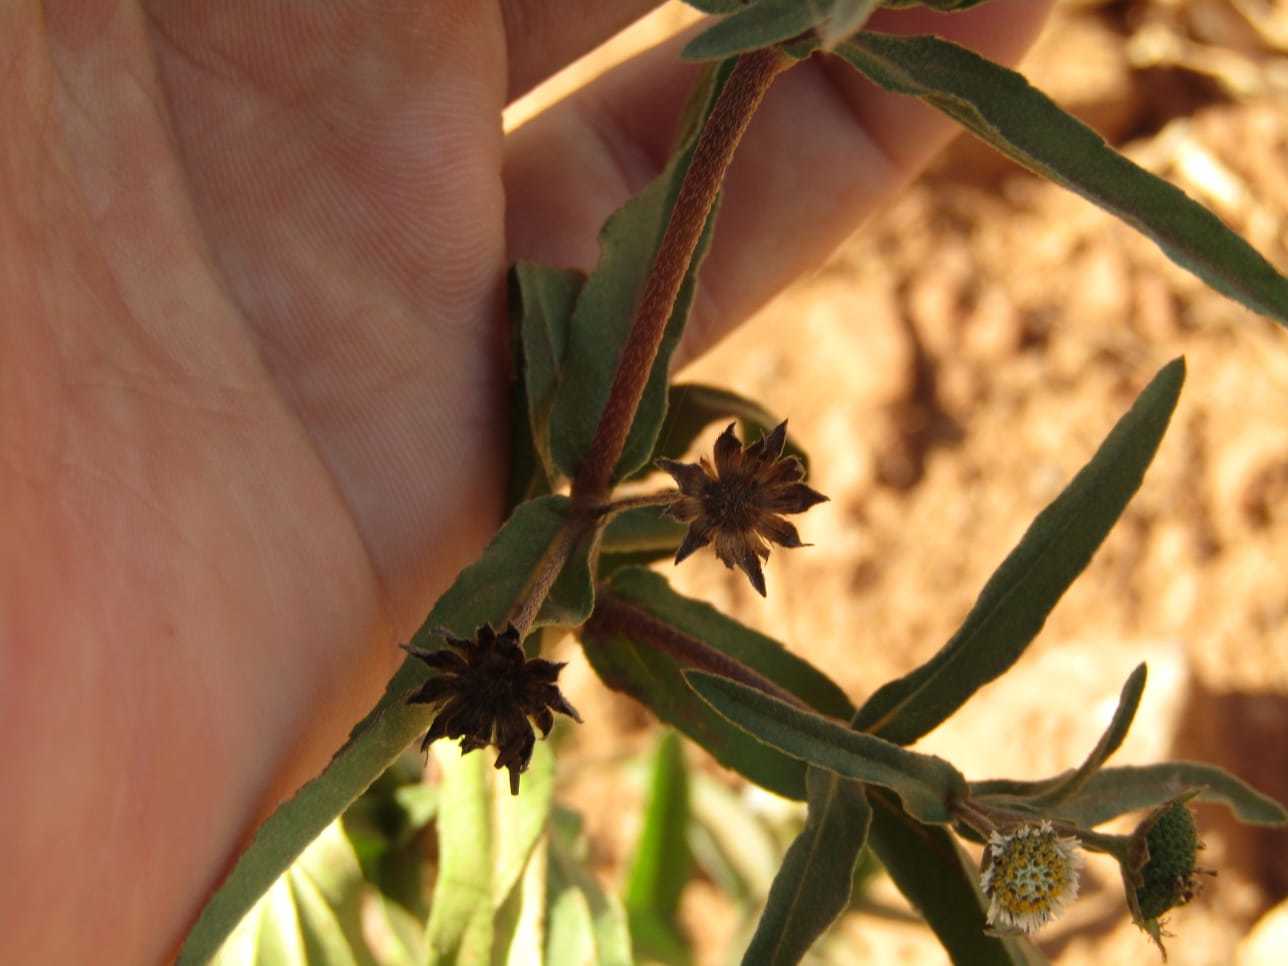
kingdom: Plantae
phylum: Tracheophyta
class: Magnoliopsida
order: Asterales
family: Asteraceae
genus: Eclipta
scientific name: Eclipta prostrata
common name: False daisy
